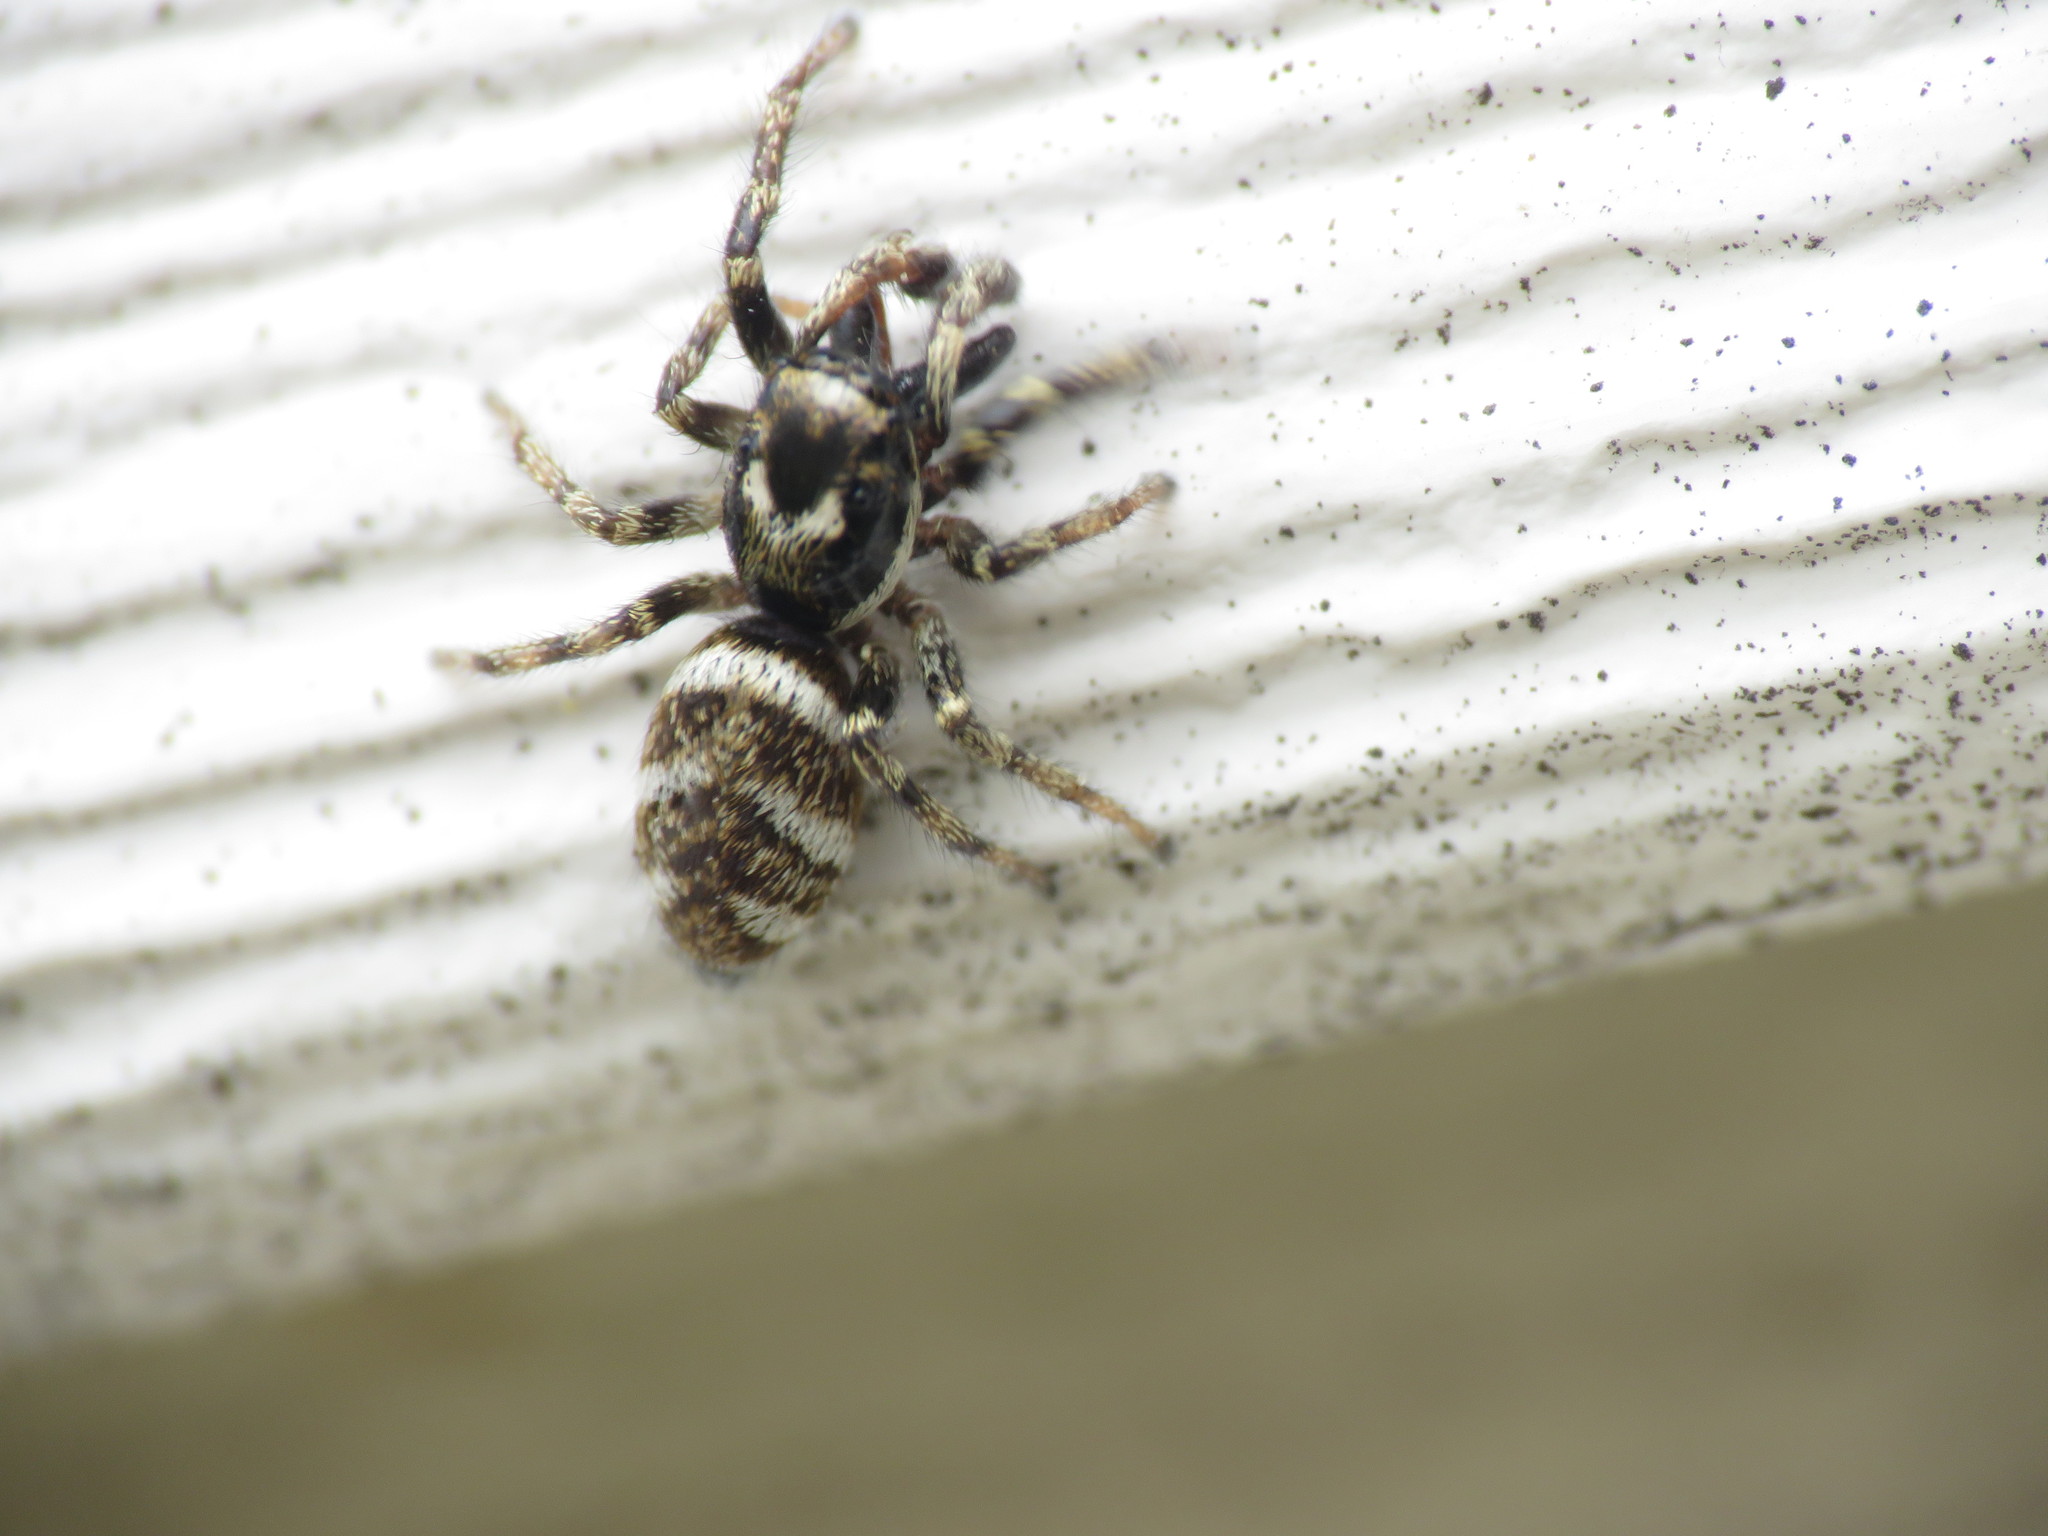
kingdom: Animalia
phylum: Arthropoda
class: Arachnida
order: Araneae
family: Salticidae
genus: Salticus
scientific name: Salticus scenicus
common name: Zebra jumper
